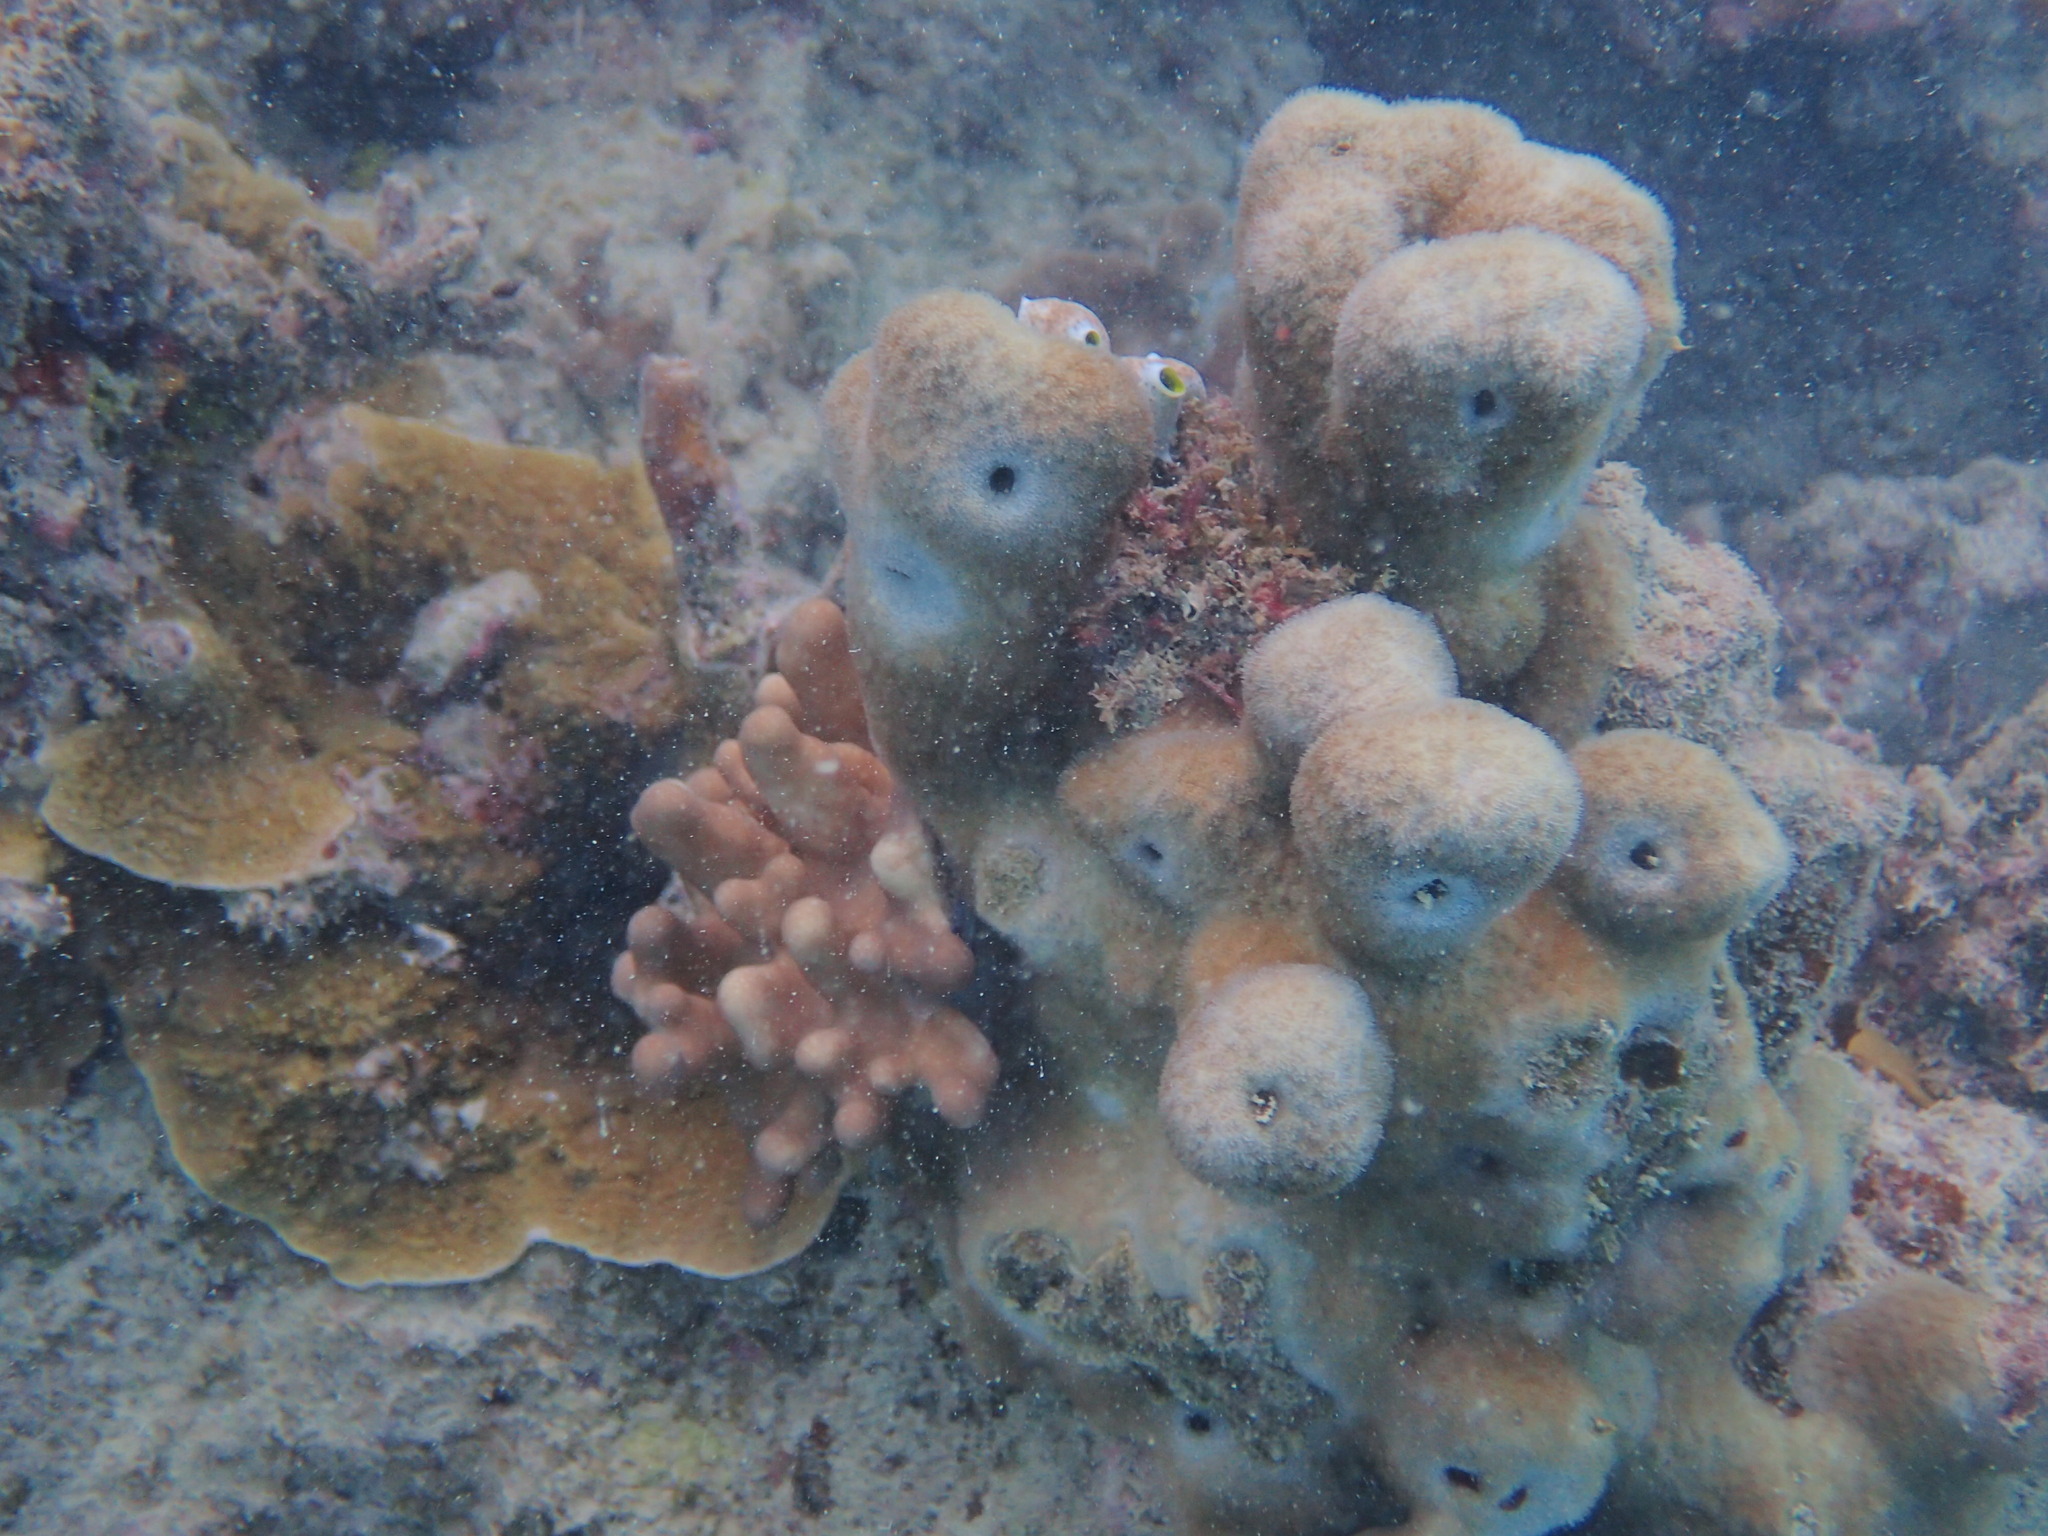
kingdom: Animalia
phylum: Cnidaria
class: Anthozoa
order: Scleractinia
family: Psammocoridae
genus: Psammocora
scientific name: Psammocora haimiana
